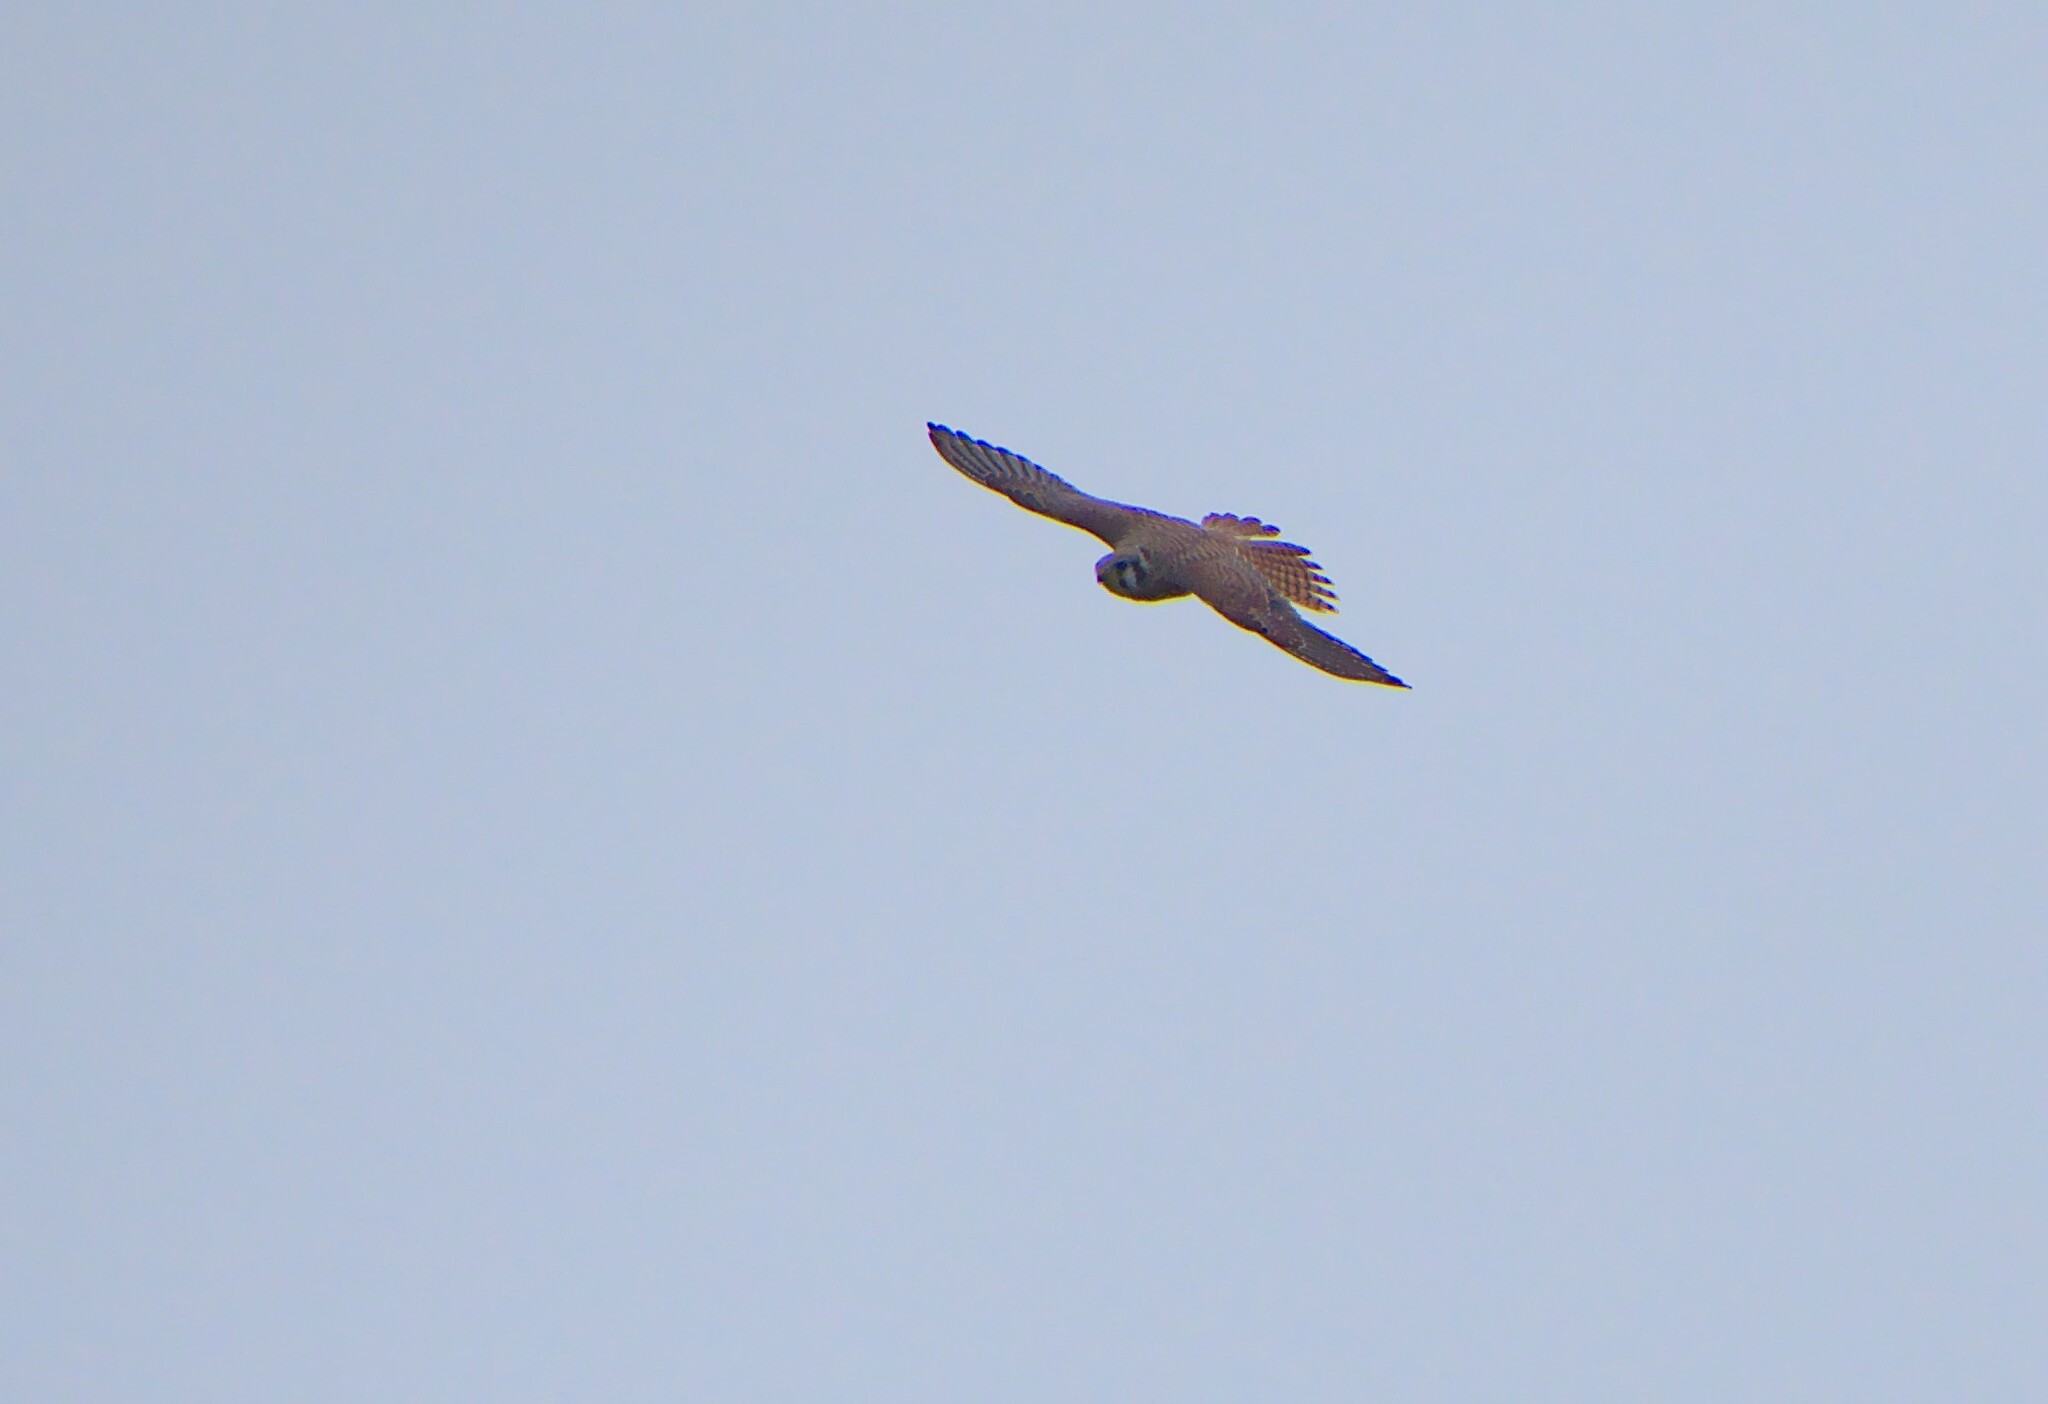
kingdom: Animalia
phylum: Chordata
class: Aves
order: Falconiformes
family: Falconidae
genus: Falco
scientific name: Falco sparverius
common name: American kestrel
